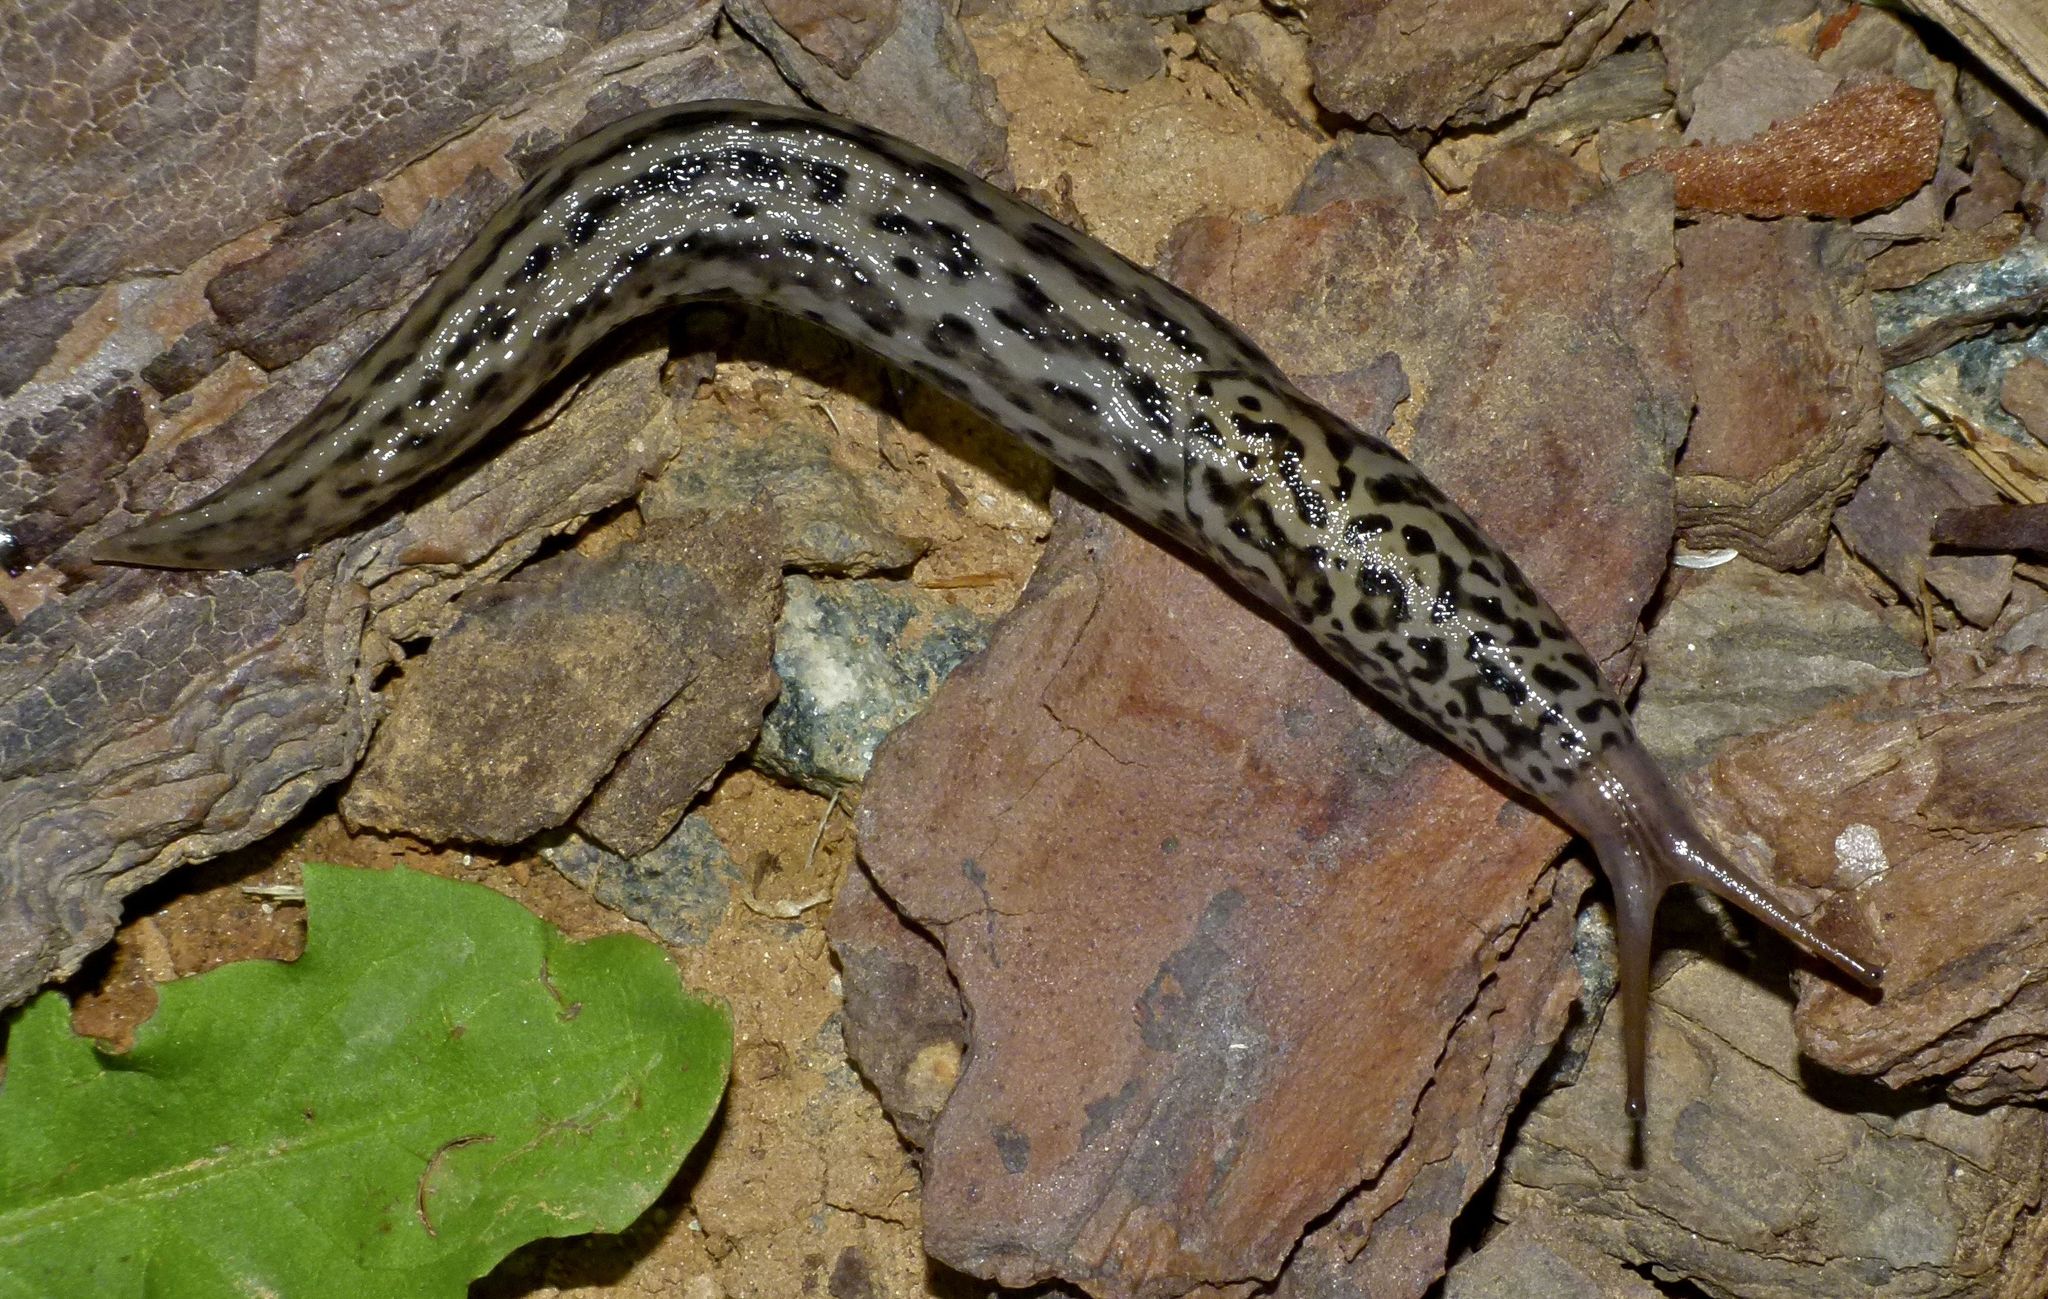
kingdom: Animalia
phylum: Mollusca
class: Gastropoda
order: Stylommatophora
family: Limacidae
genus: Limax
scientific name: Limax maximus
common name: Great grey slug
